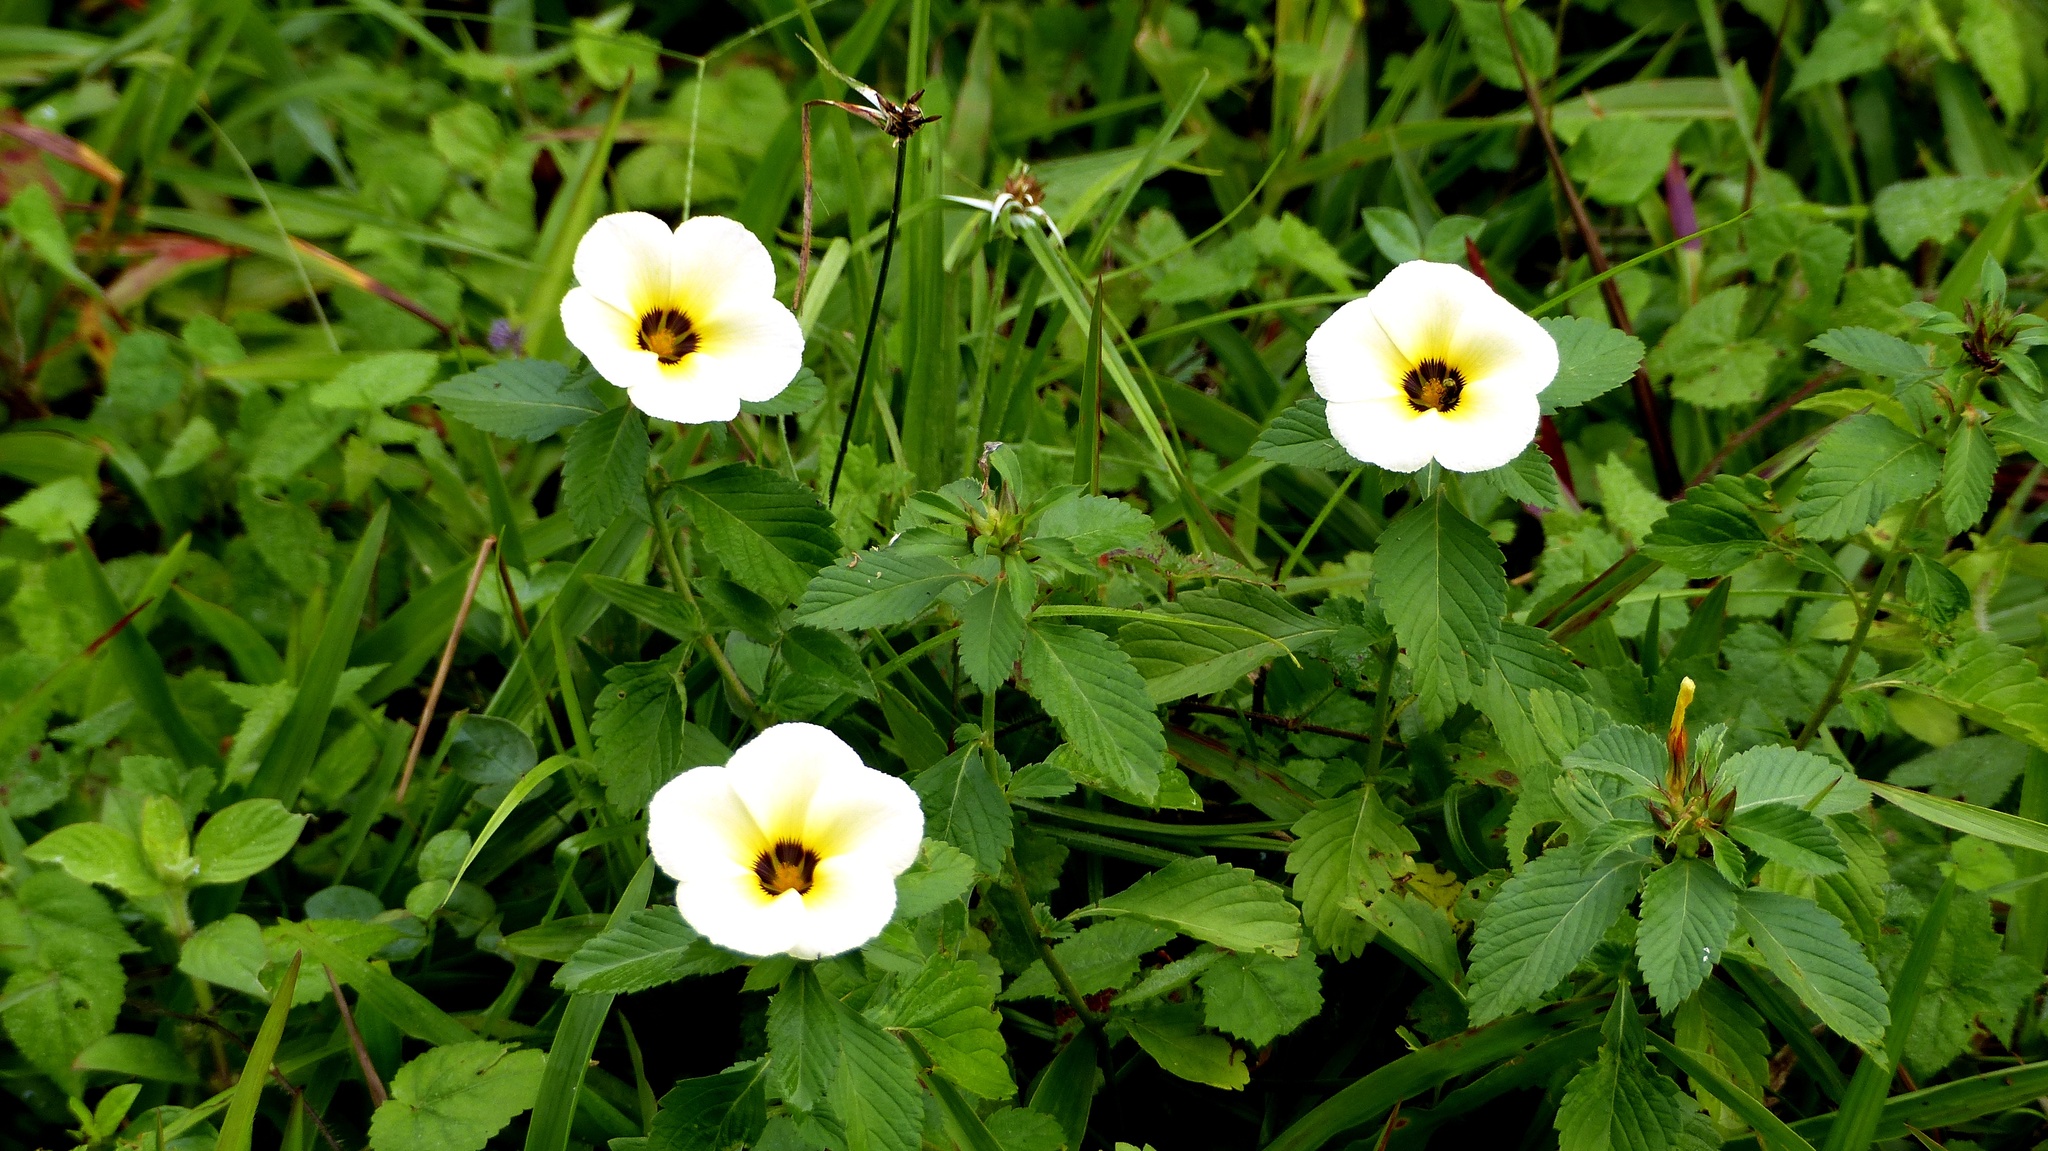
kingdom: Plantae
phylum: Tracheophyta
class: Magnoliopsida
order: Malpighiales
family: Turneraceae
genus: Turnera
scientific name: Turnera subulata
